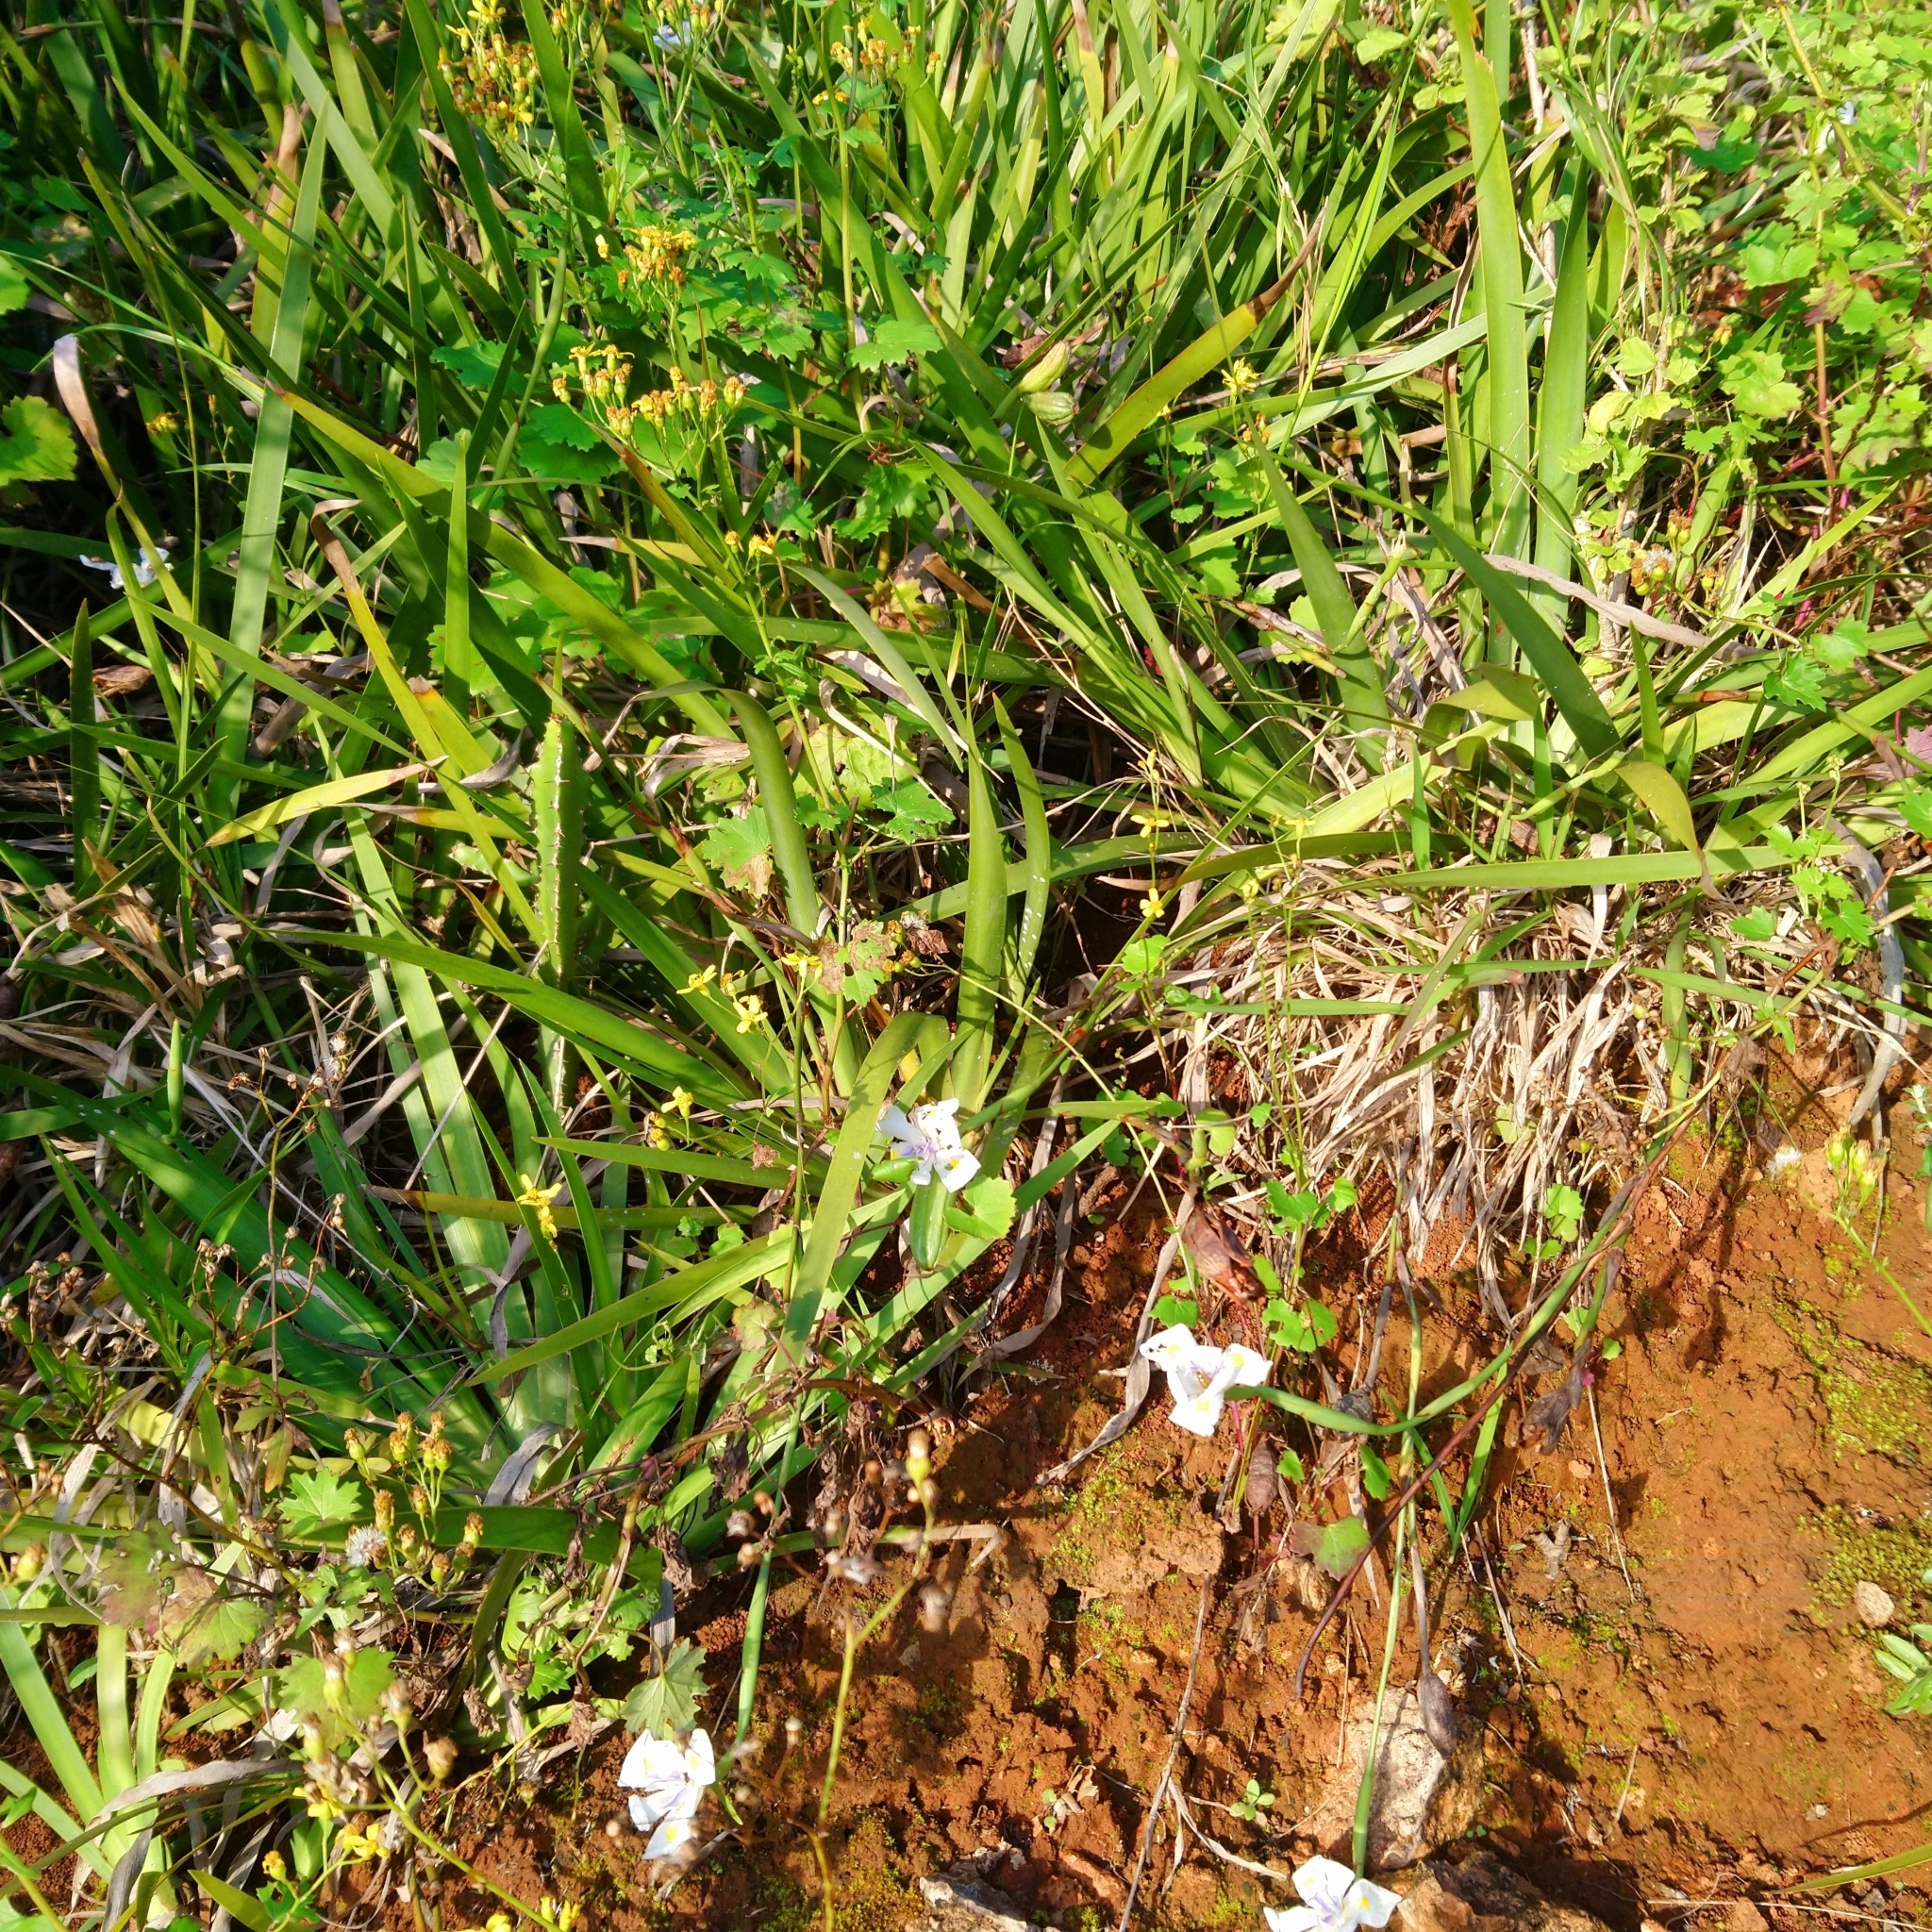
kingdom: Plantae
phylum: Tracheophyta
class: Liliopsida
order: Asparagales
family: Iridaceae
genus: Dietes
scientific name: Dietes iridioides
